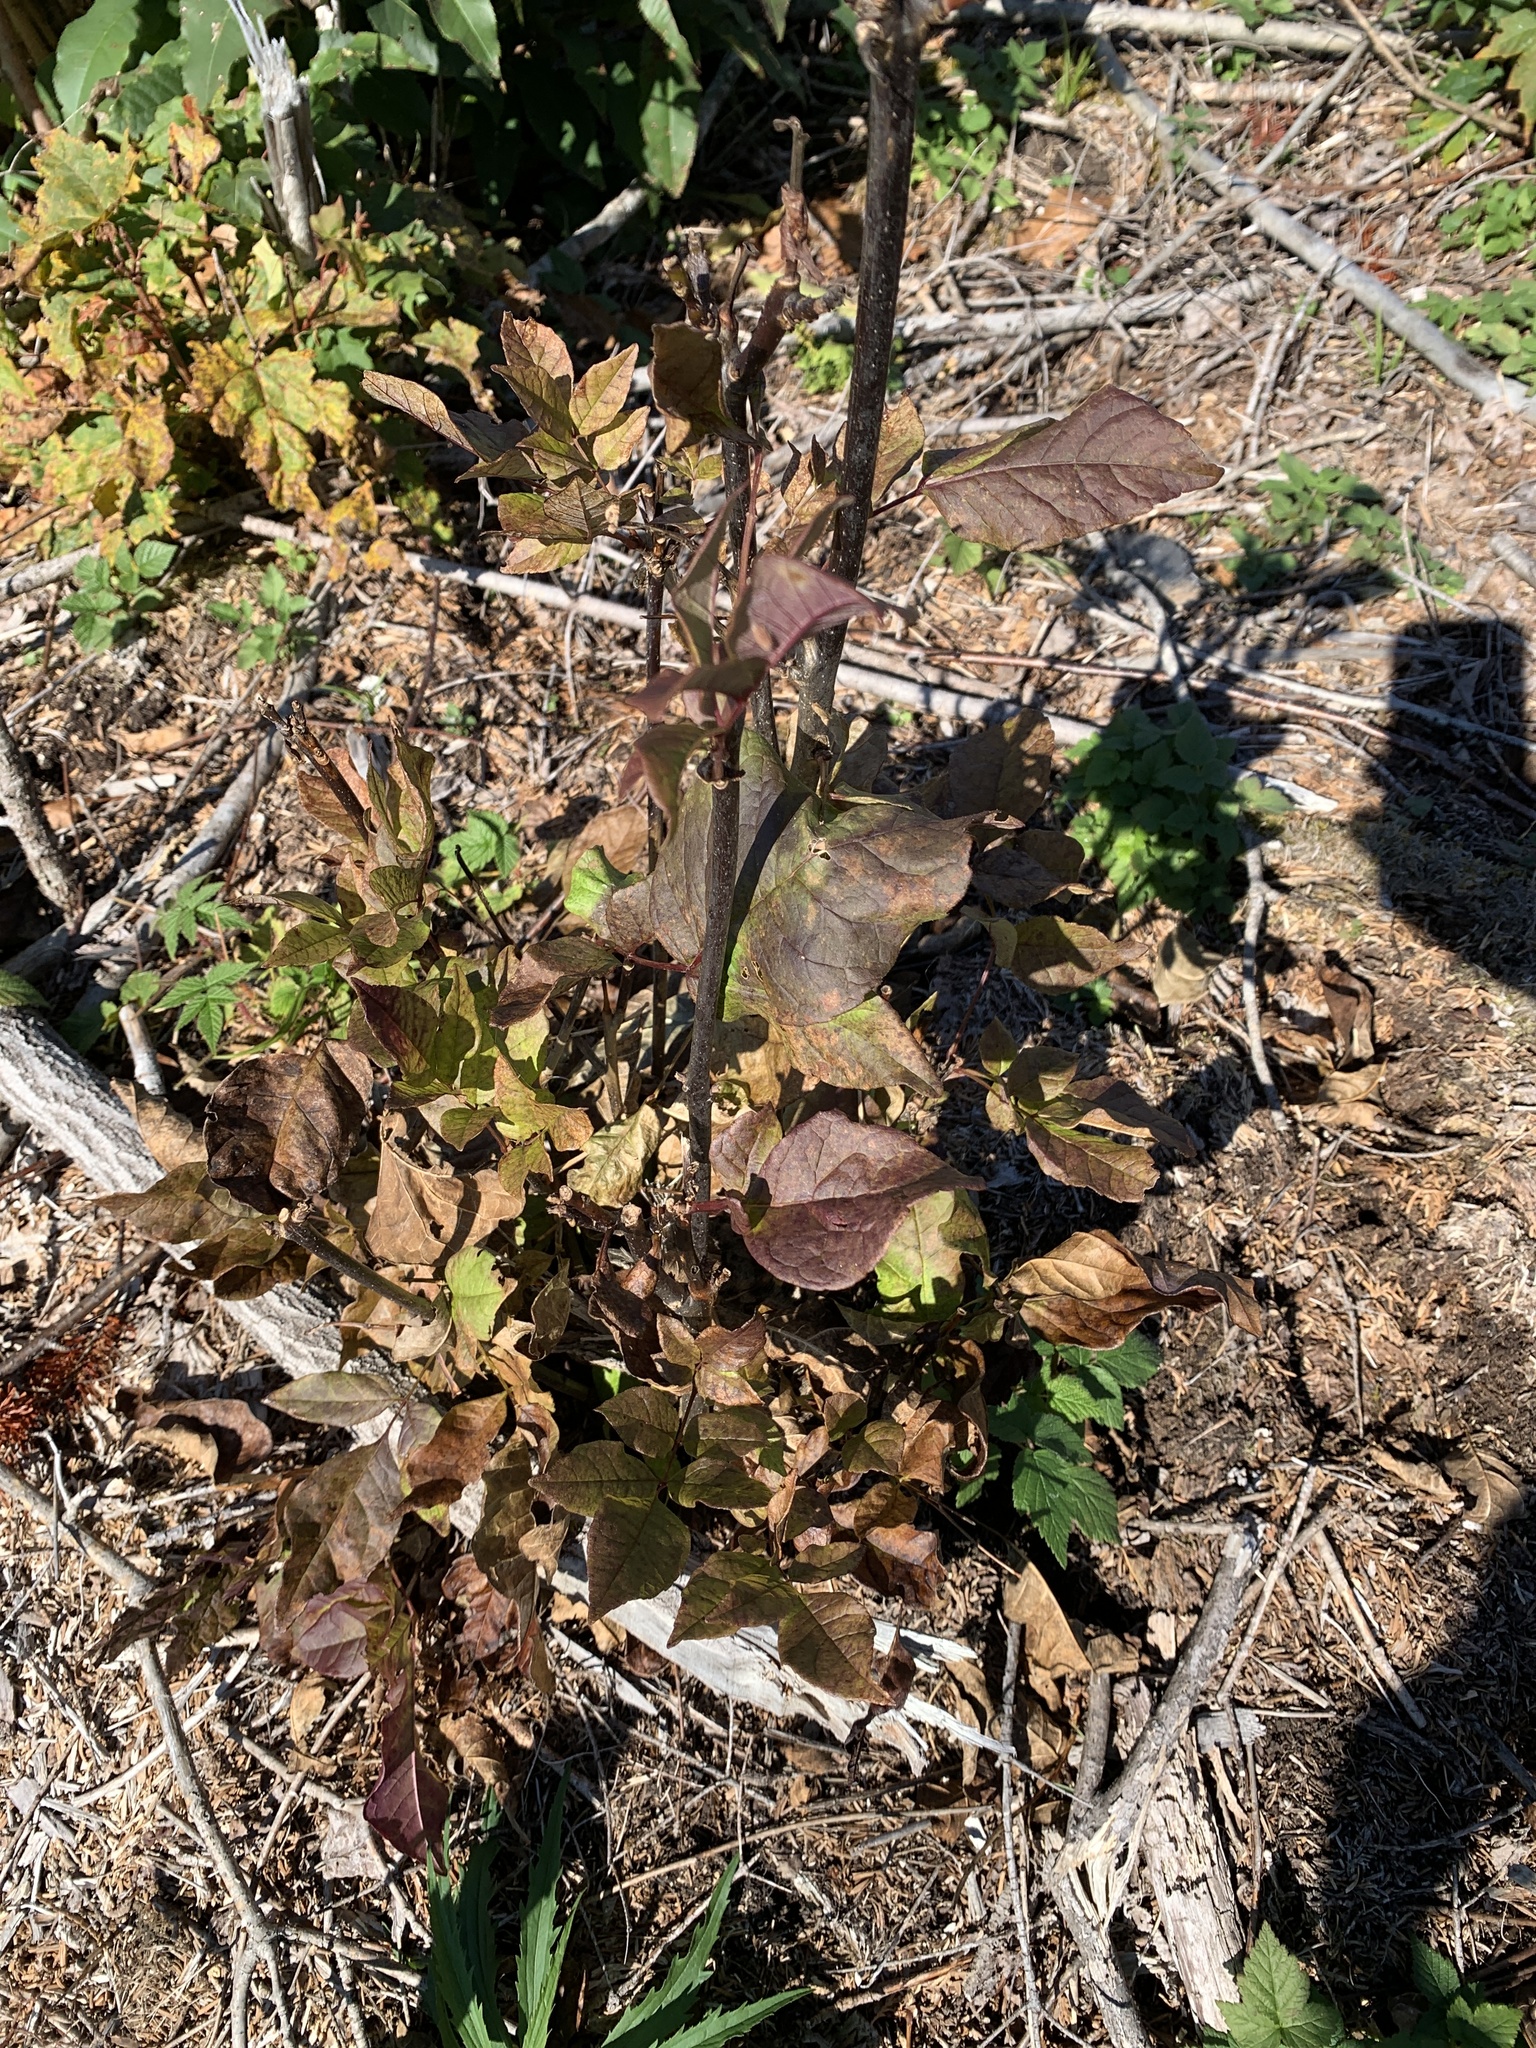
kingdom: Plantae
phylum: Tracheophyta
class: Magnoliopsida
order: Lamiales
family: Oleaceae
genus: Fraxinus
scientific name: Fraxinus americana
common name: White ash
